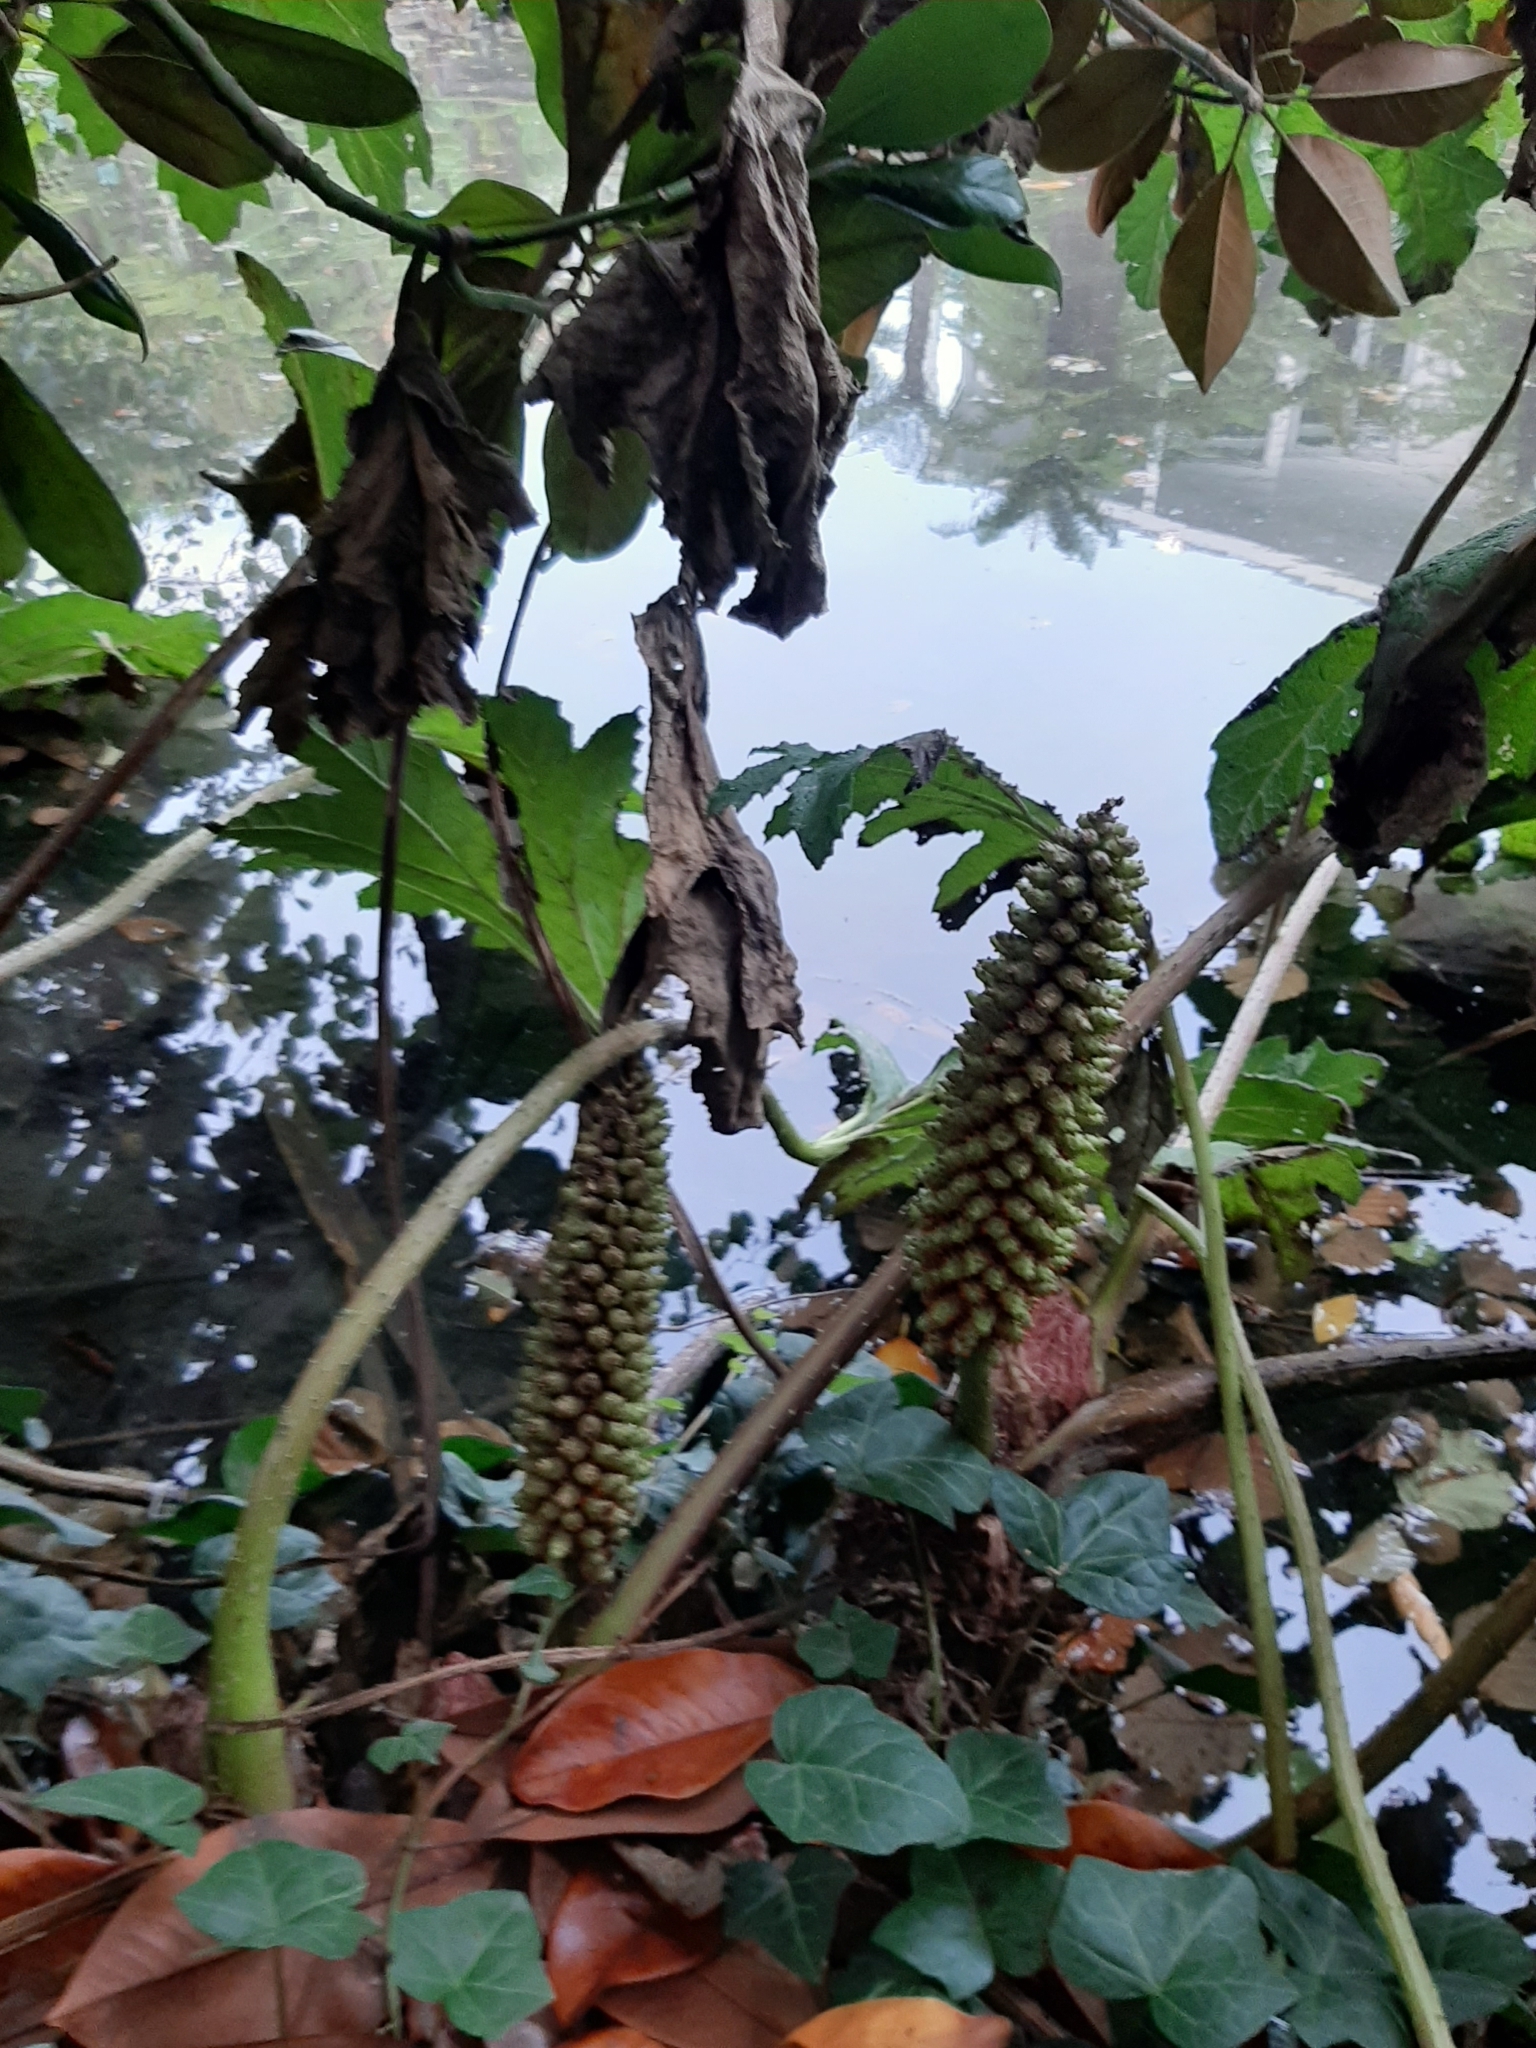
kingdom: Plantae
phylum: Tracheophyta
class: Magnoliopsida
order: Gunnerales
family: Gunneraceae
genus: Gunnera
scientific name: Gunnera tinctoria
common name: Giant-rhubarb
